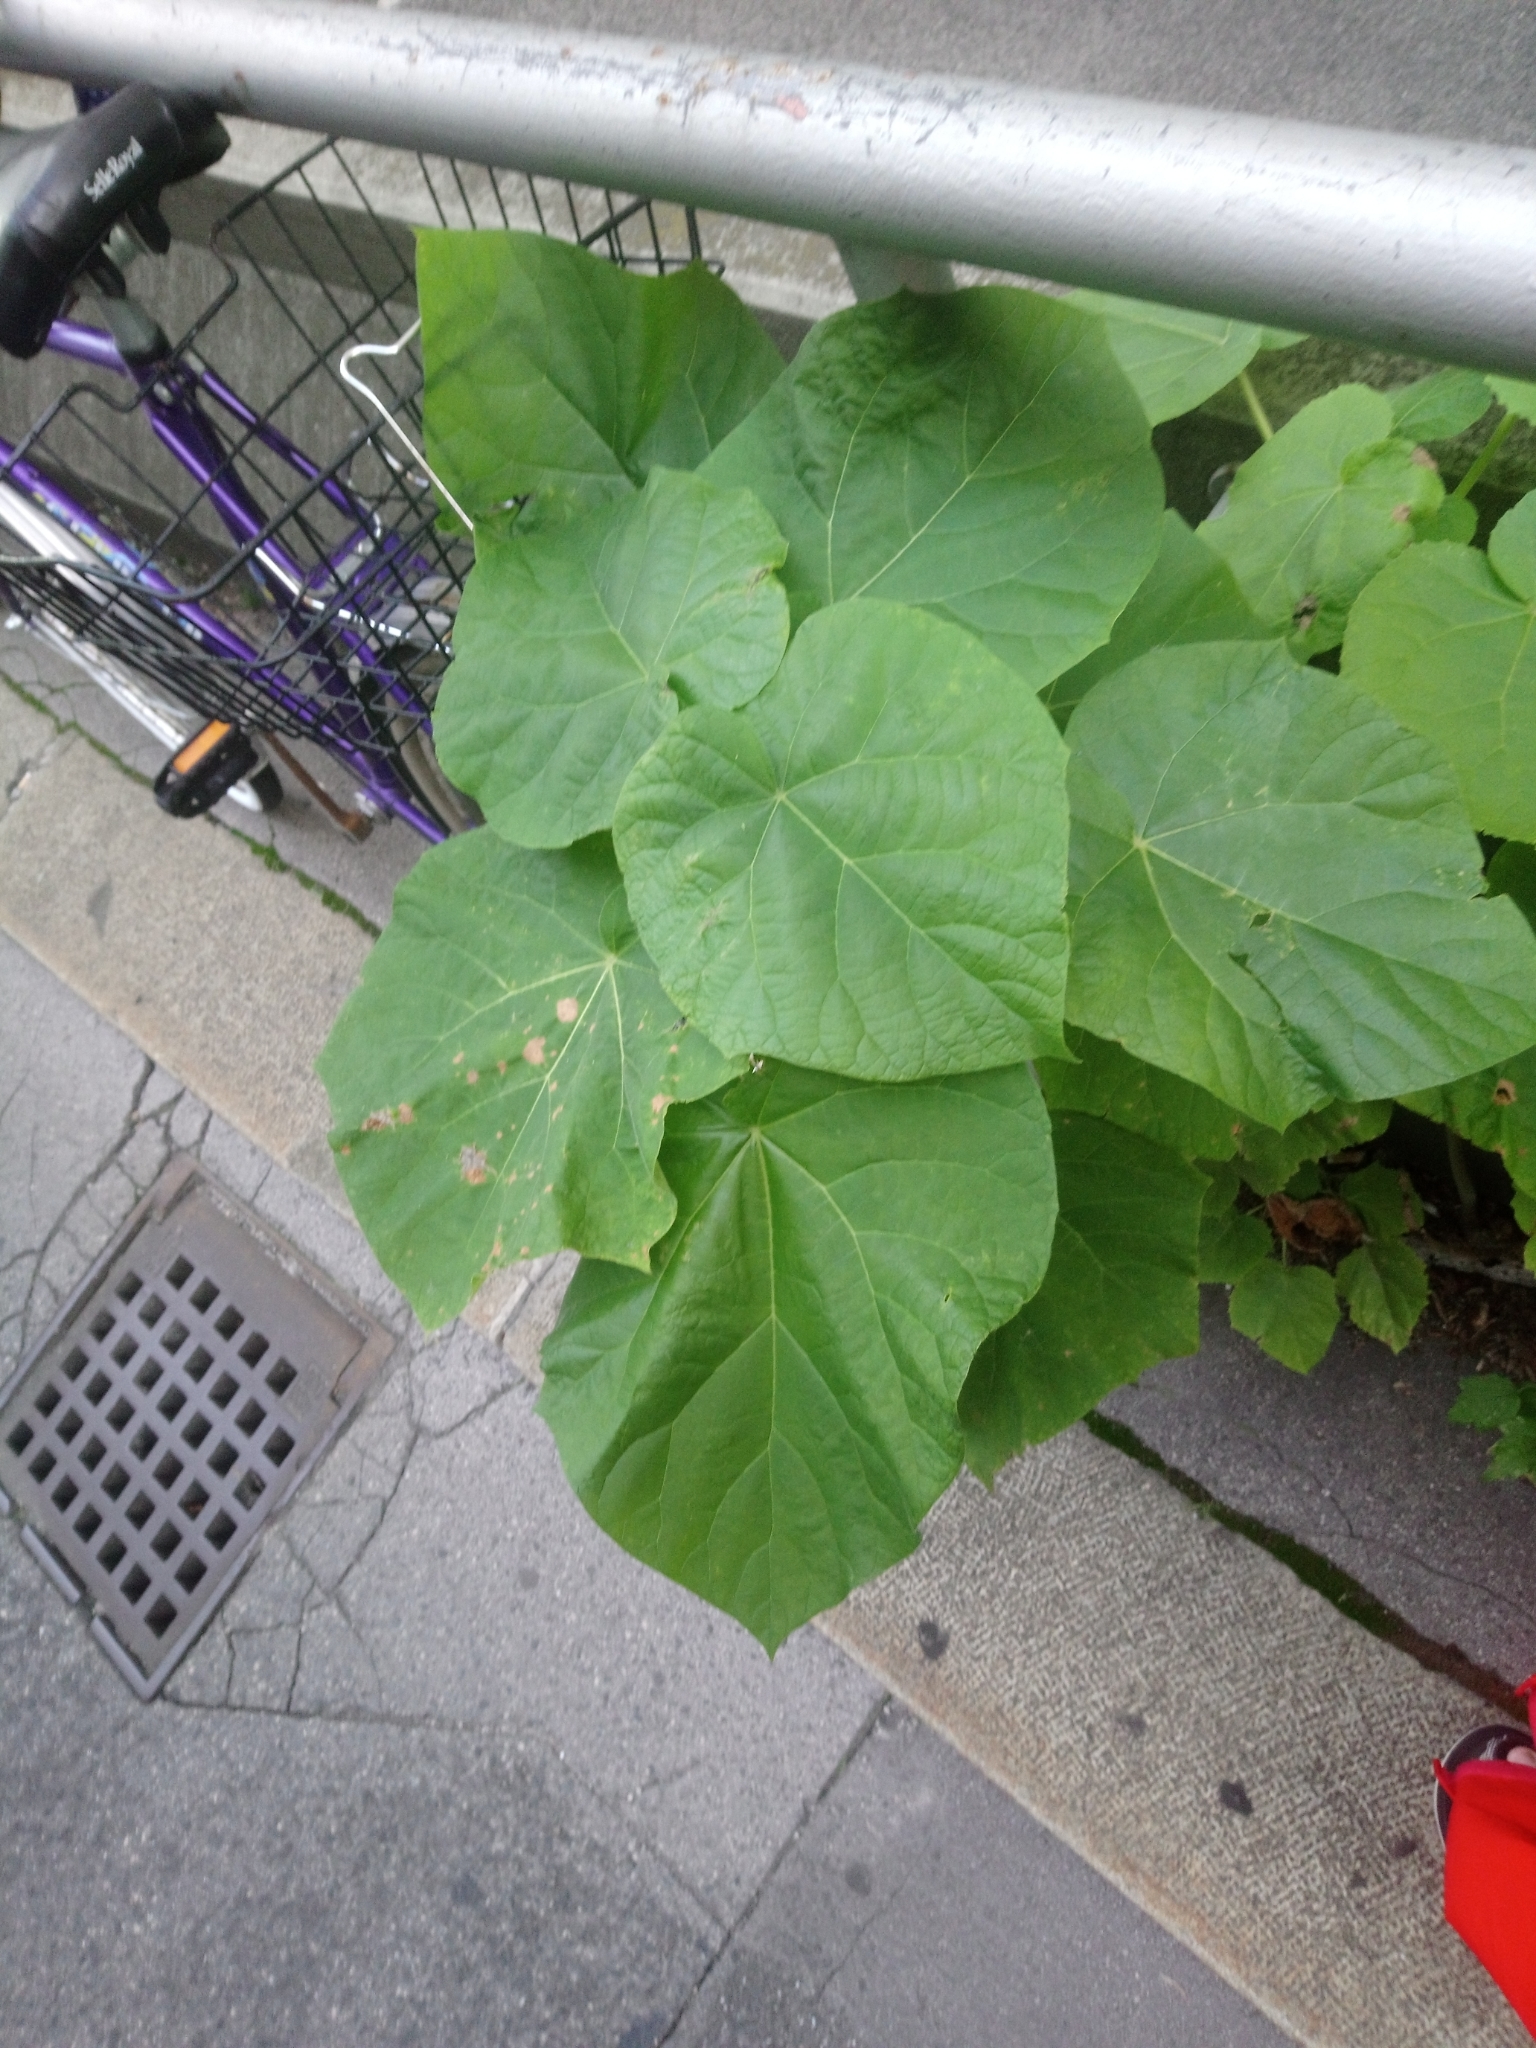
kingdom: Plantae
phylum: Tracheophyta
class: Magnoliopsida
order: Lamiales
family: Paulowniaceae
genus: Paulownia
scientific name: Paulownia tomentosa
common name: Foxglove-tree
